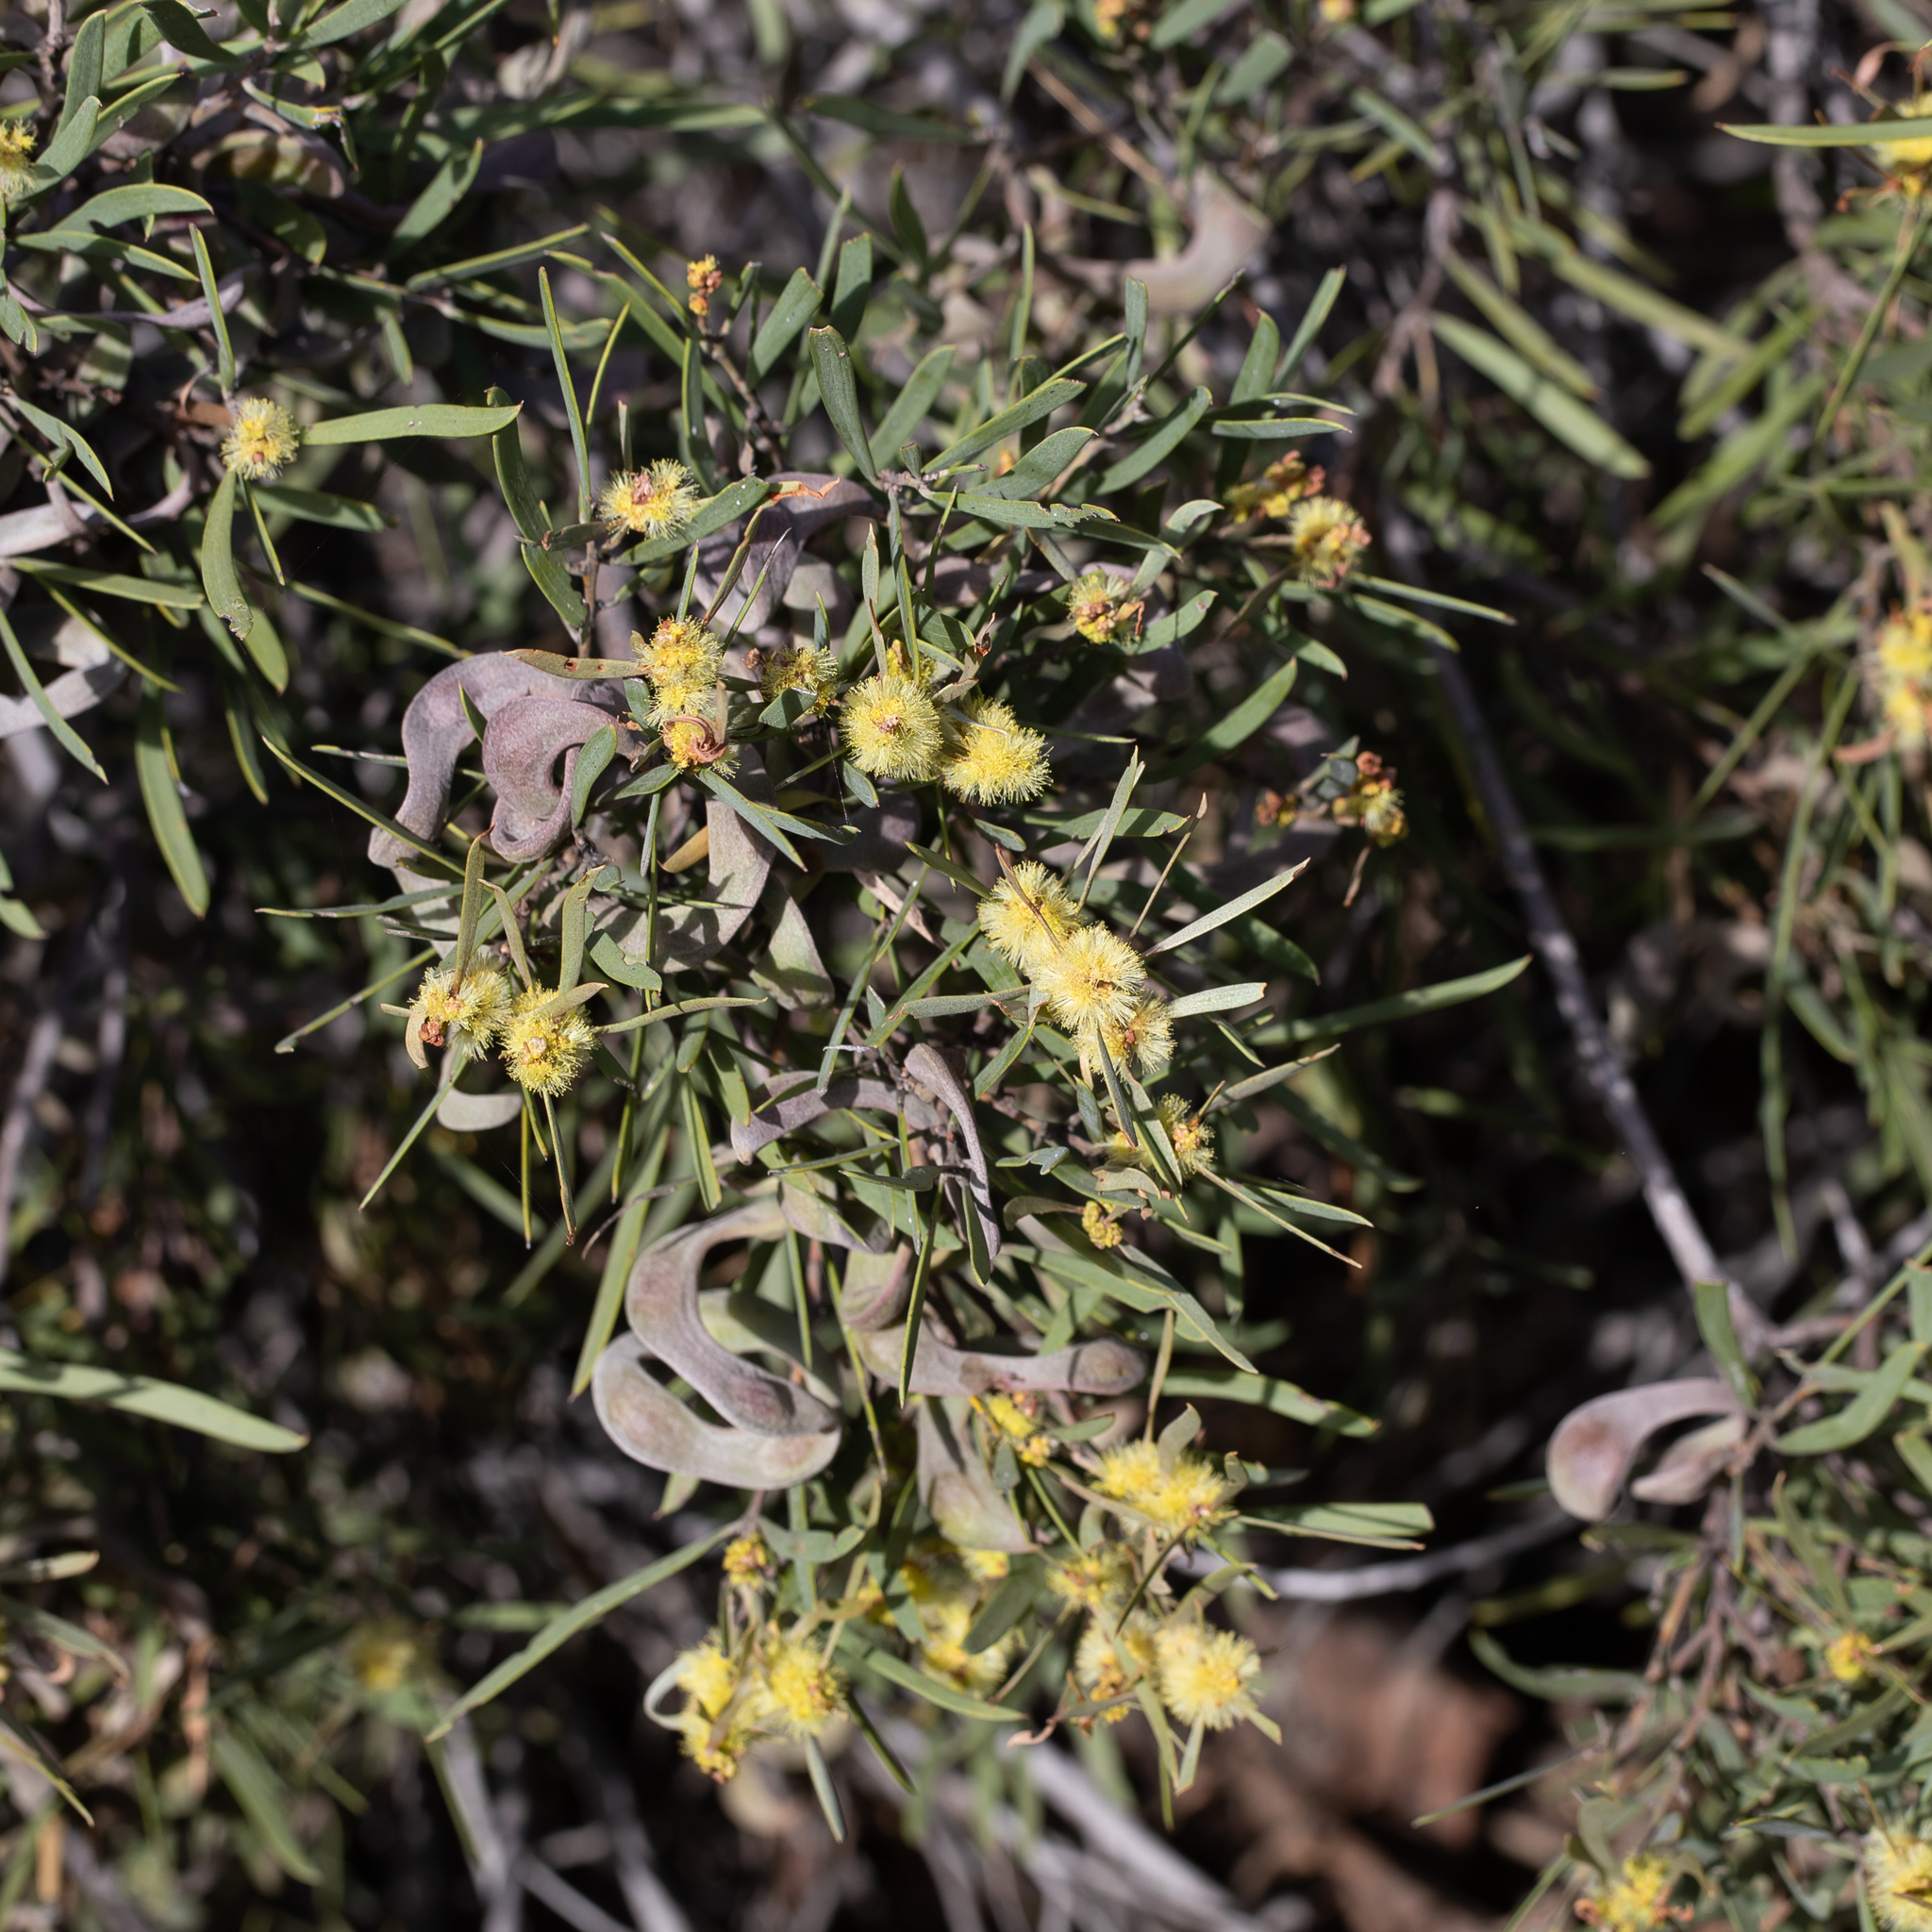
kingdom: Plantae
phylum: Tracheophyta
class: Magnoliopsida
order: Fabales
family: Fabaceae
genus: Acacia
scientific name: Acacia oswaldii
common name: Umbrella wattle
